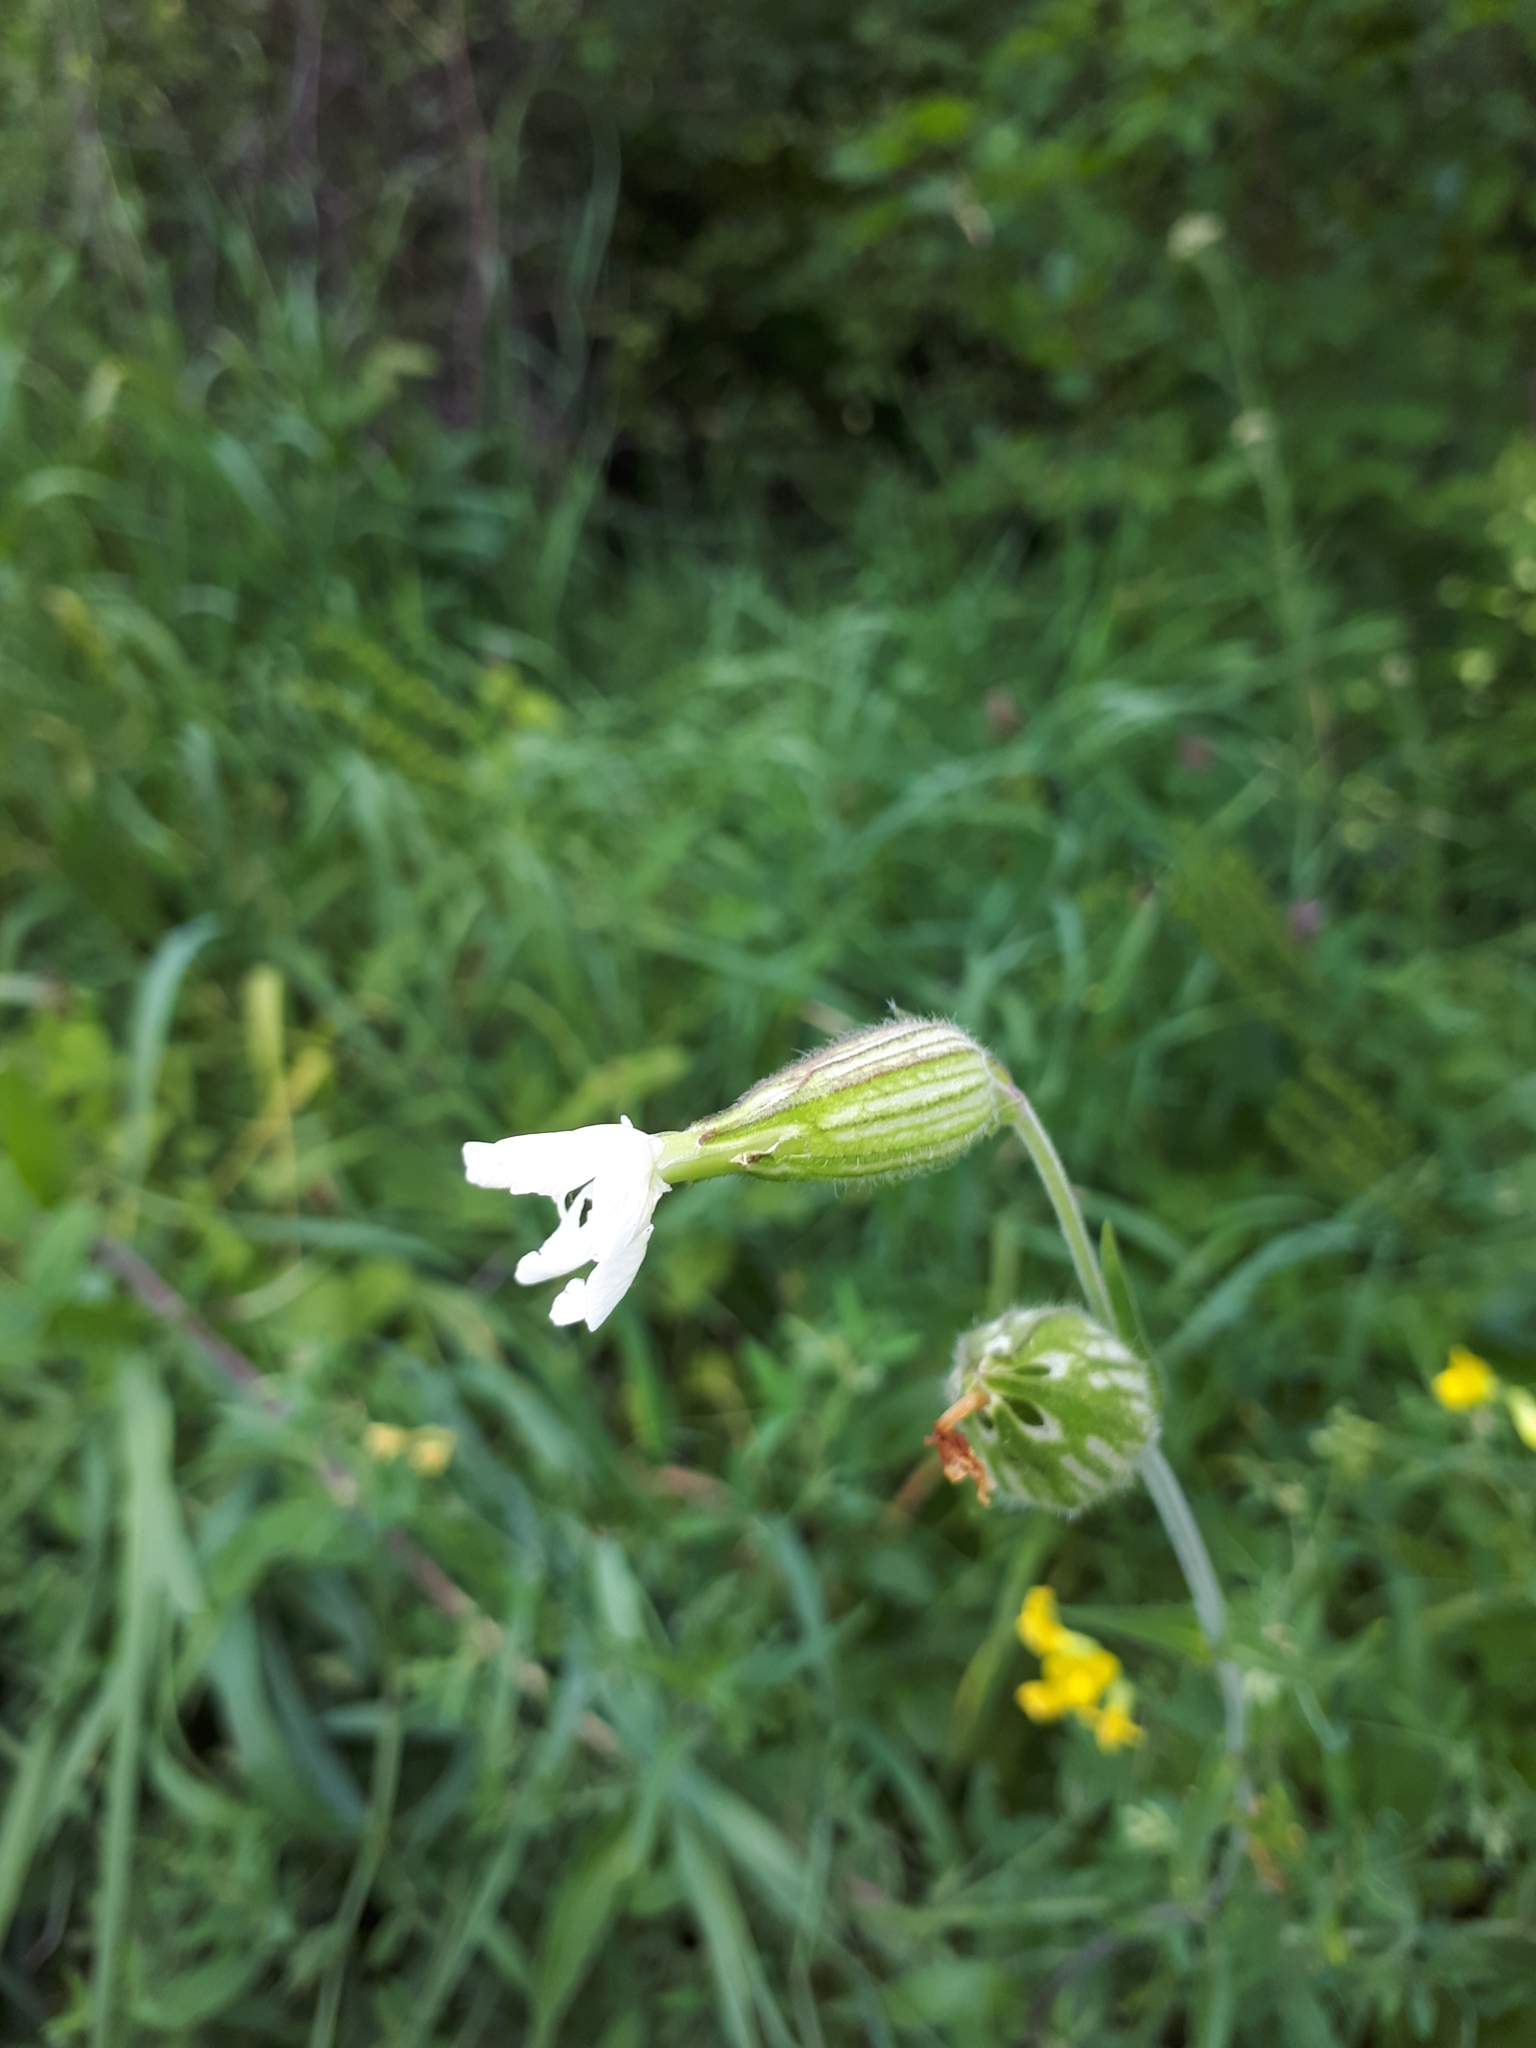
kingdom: Plantae
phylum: Tracheophyta
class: Magnoliopsida
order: Caryophyllales
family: Caryophyllaceae
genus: Silene
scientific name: Silene latifolia
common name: White campion
